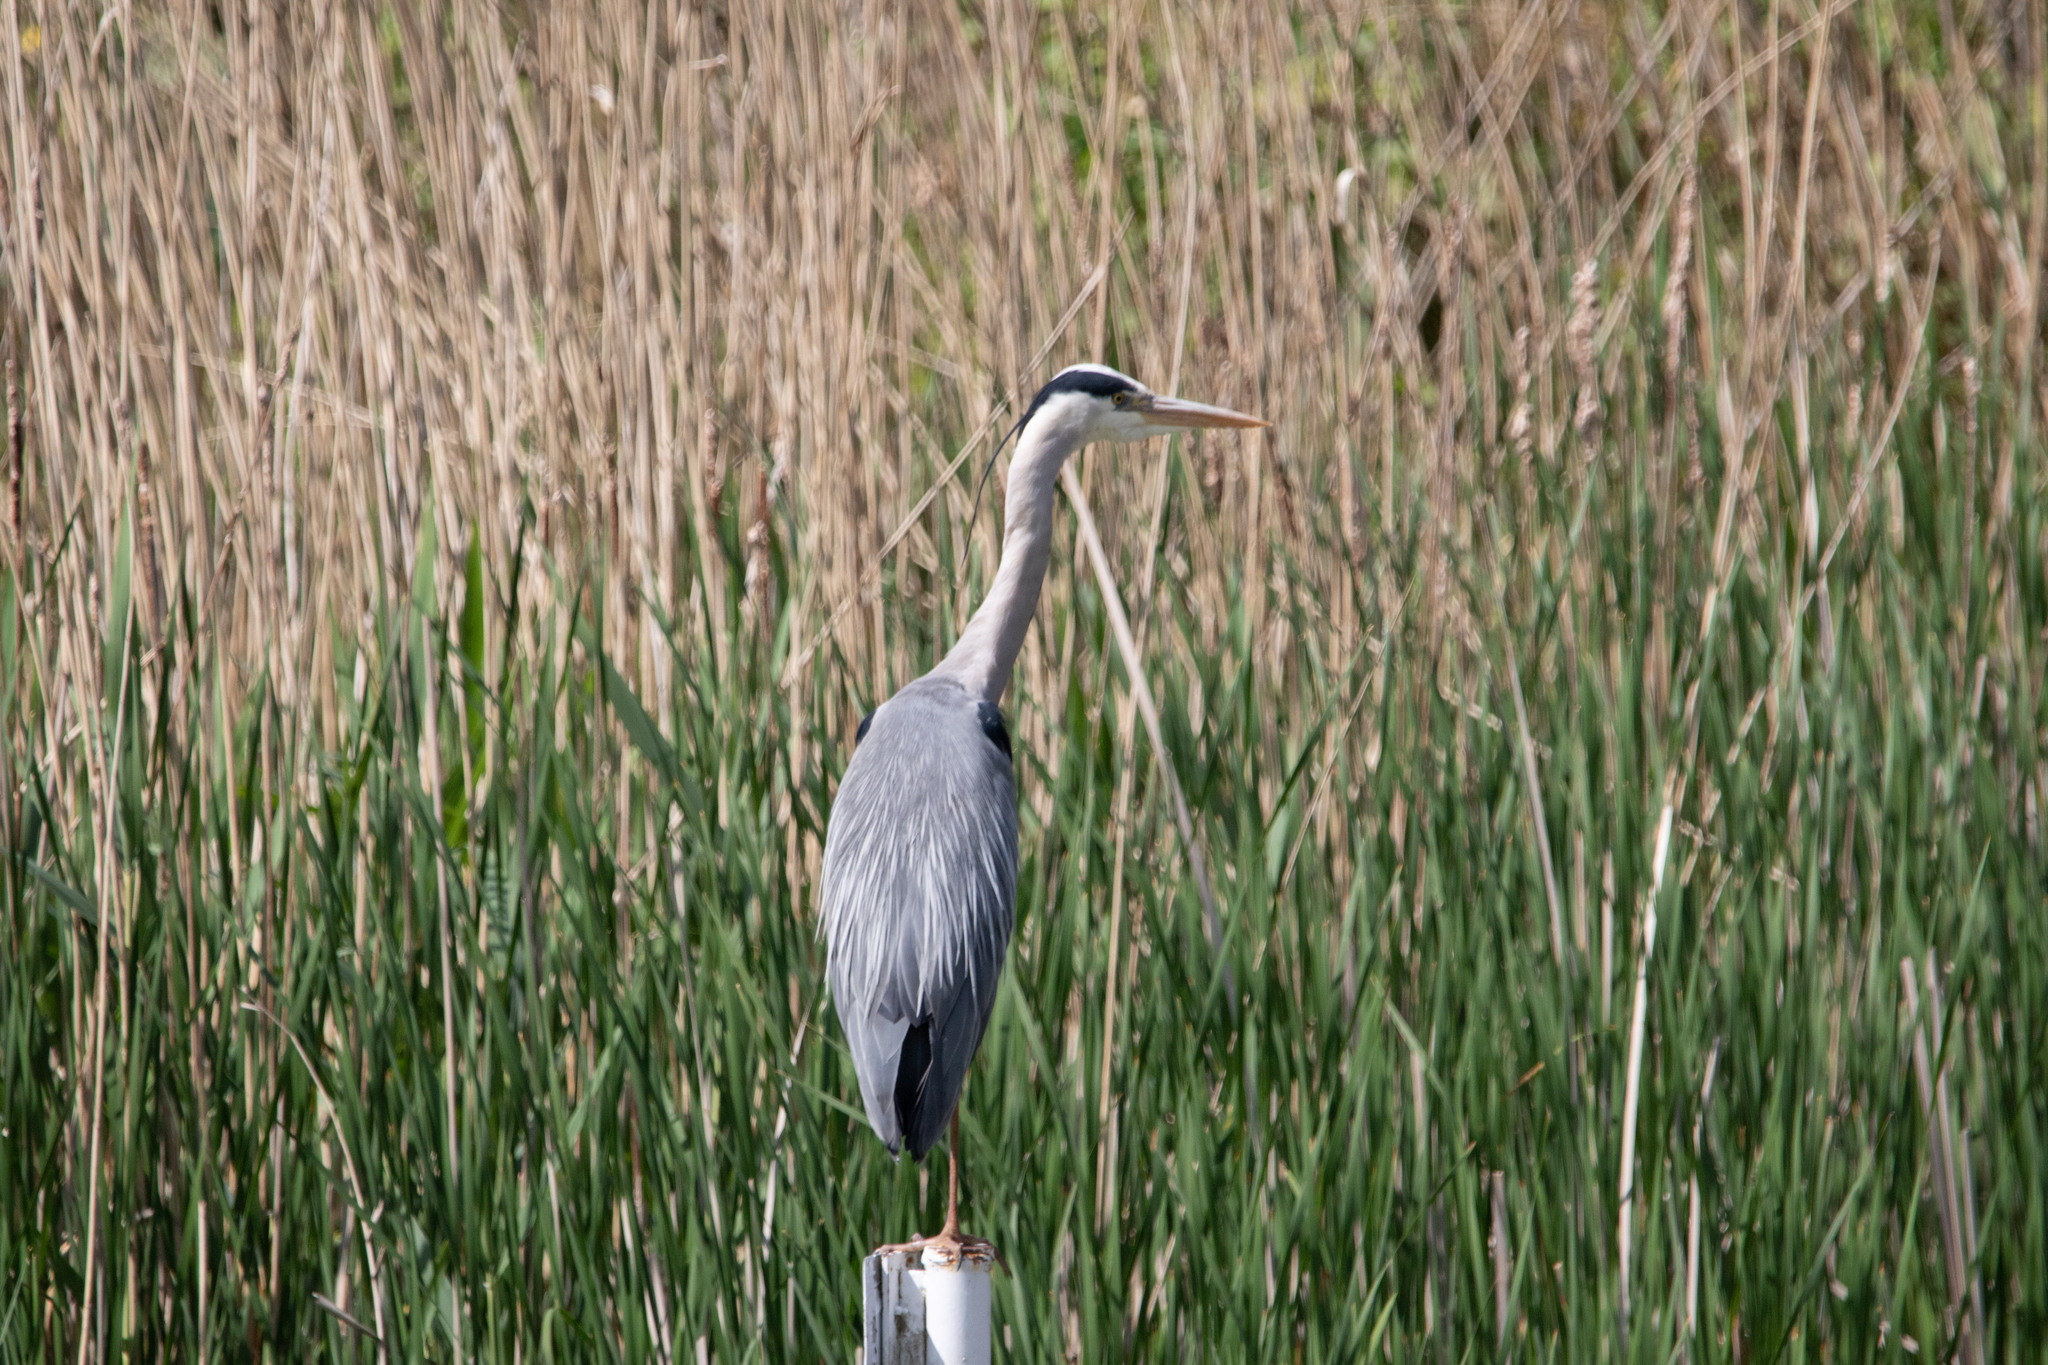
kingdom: Animalia
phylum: Chordata
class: Aves
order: Pelecaniformes
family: Ardeidae
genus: Ardea
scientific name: Ardea cinerea
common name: Grey heron
